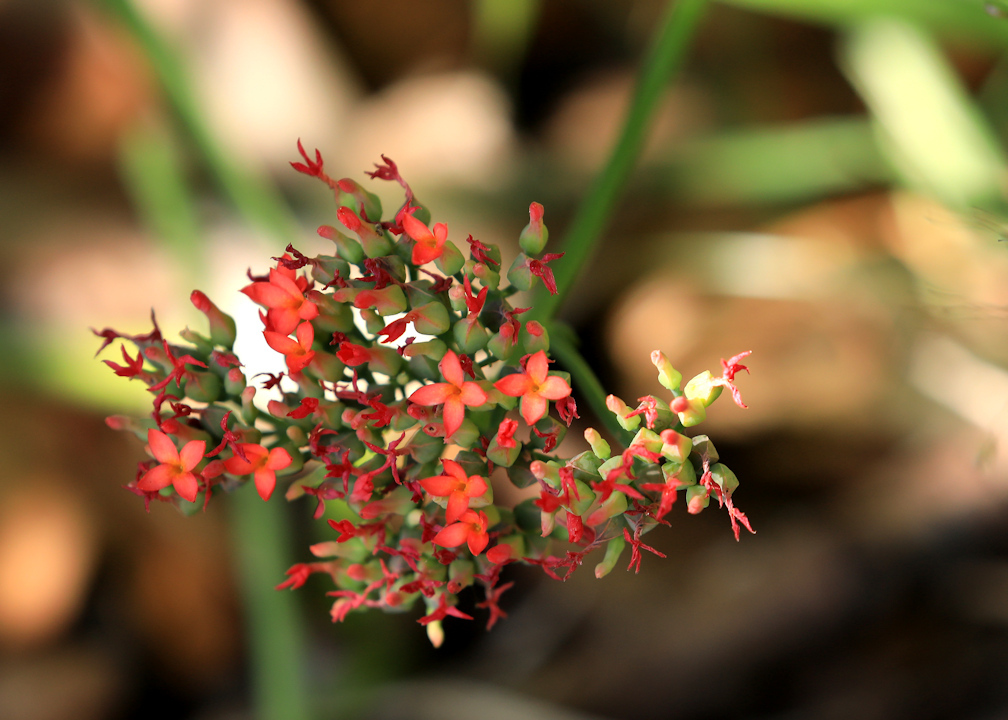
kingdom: Plantae
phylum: Tracheophyta
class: Magnoliopsida
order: Saxifragales
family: Crassulaceae
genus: Kalanchoe
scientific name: Kalanchoe rotundifolia
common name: Common kalanchoe
